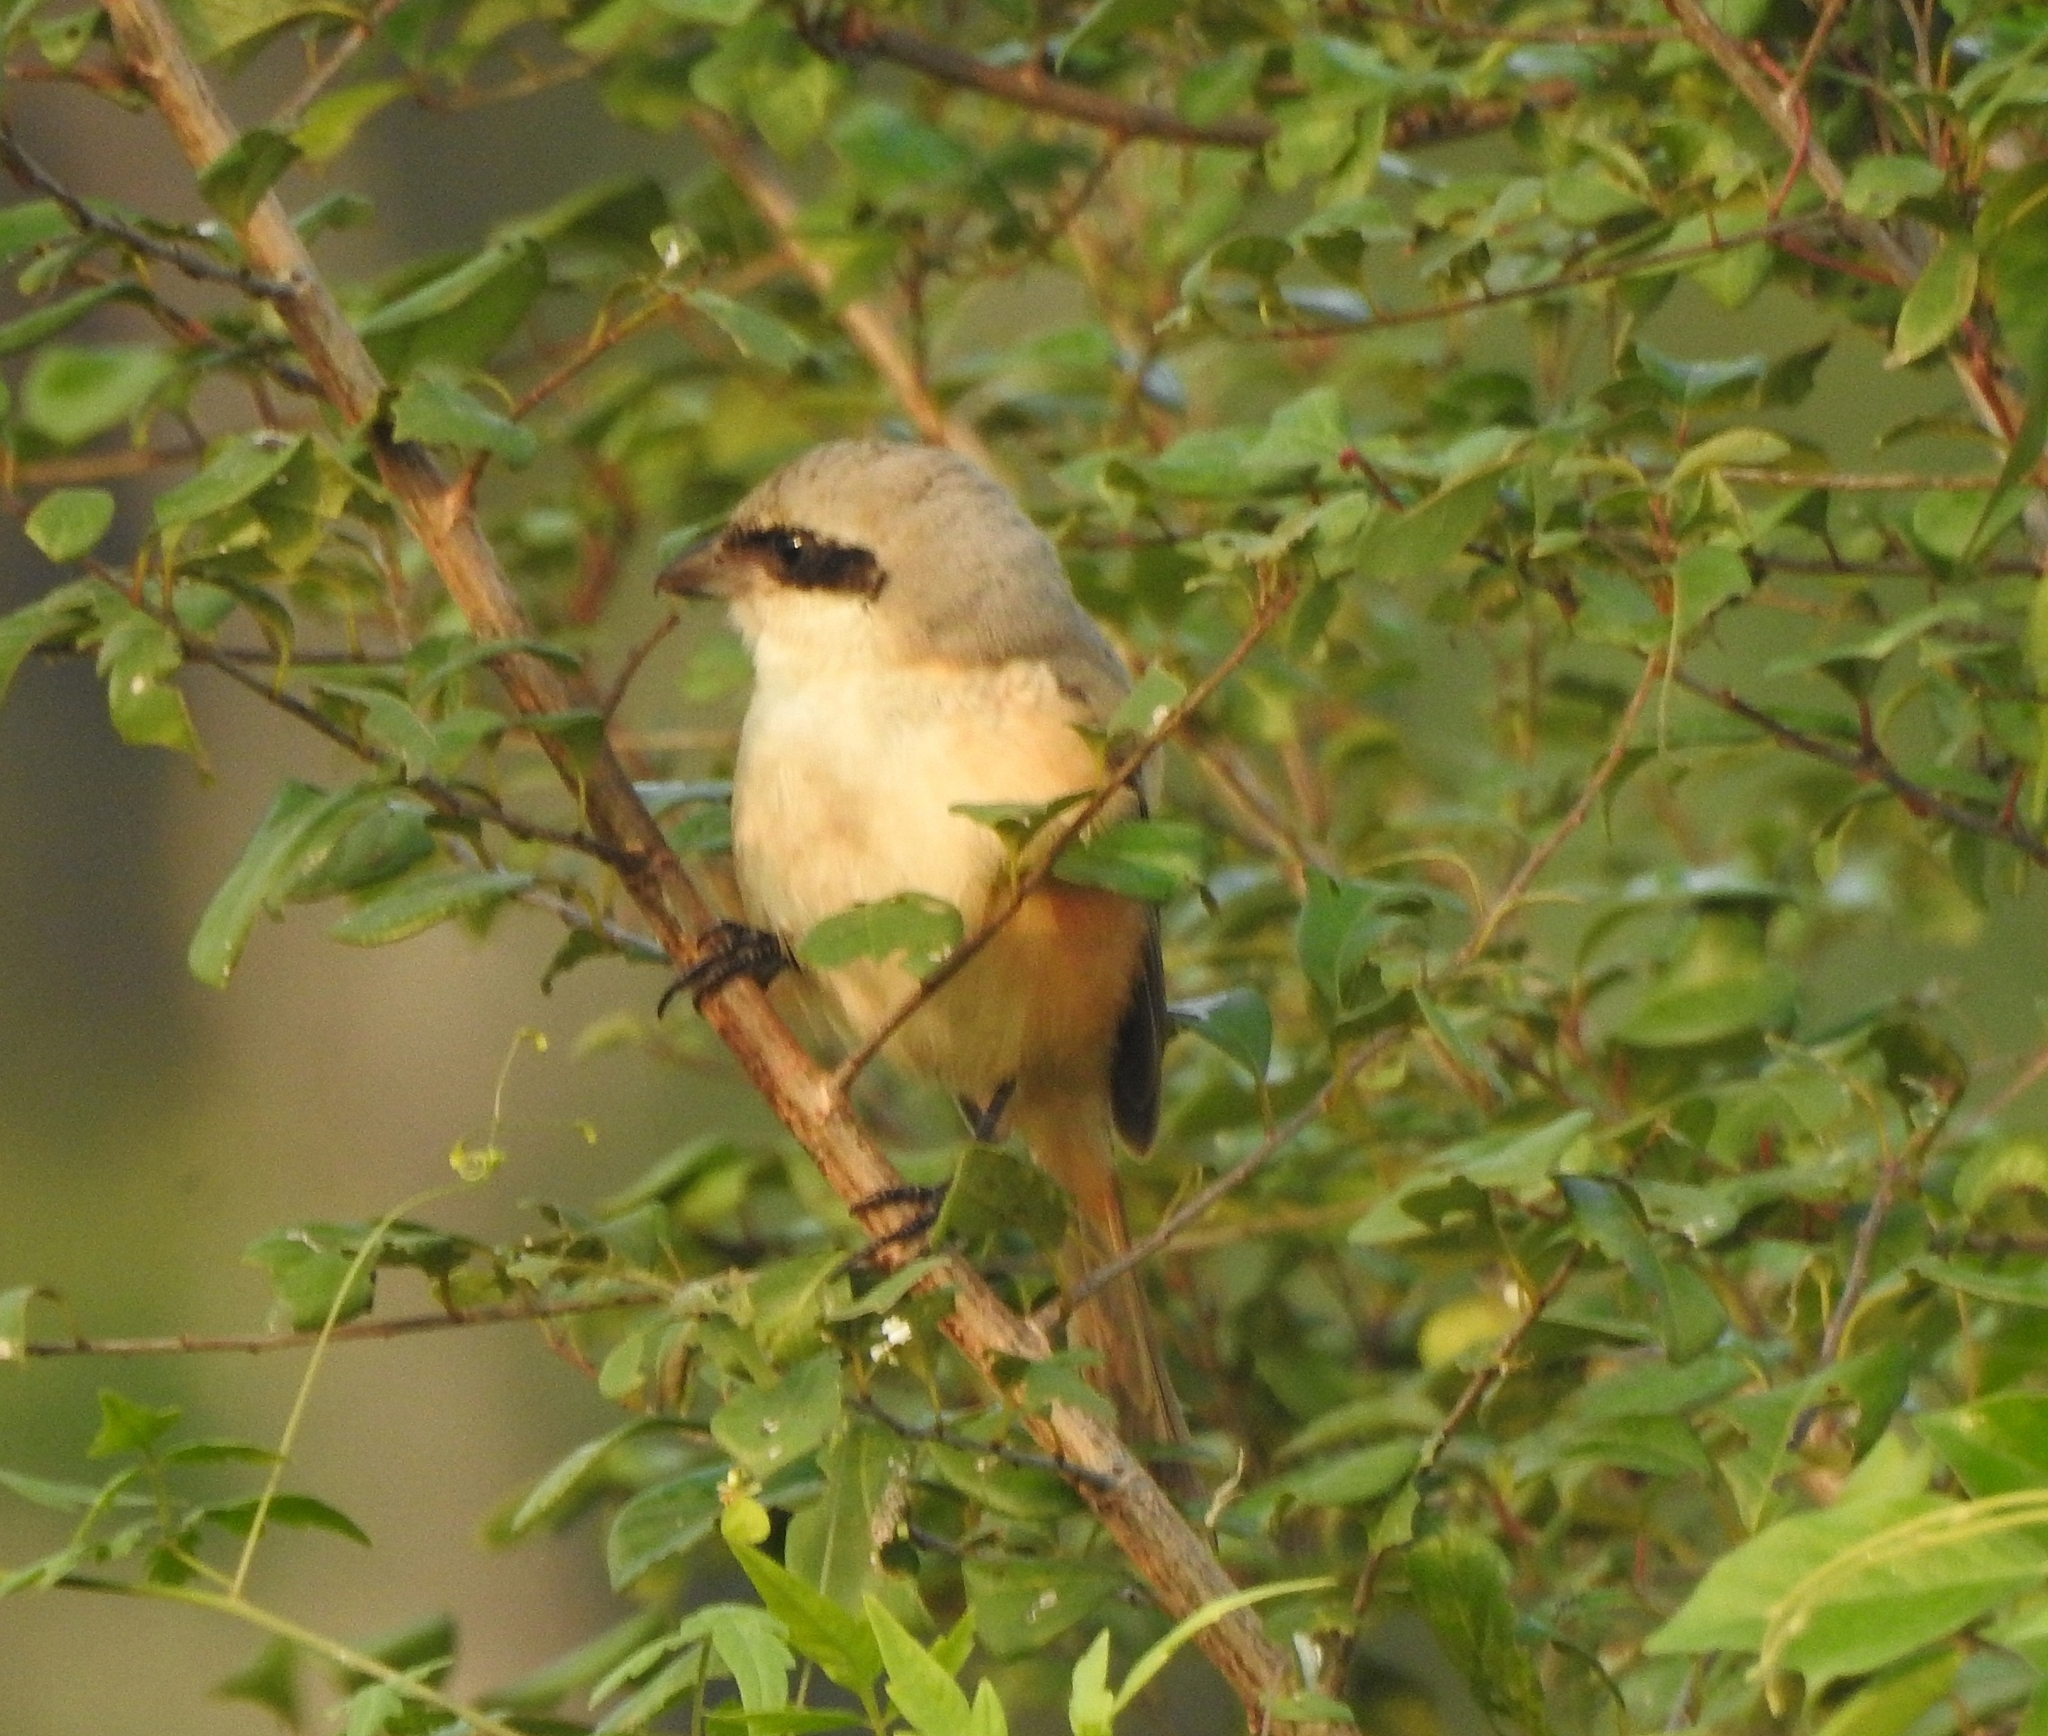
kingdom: Animalia
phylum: Chordata
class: Aves
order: Passeriformes
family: Laniidae
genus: Lanius
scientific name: Lanius schach
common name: Long-tailed shrike
